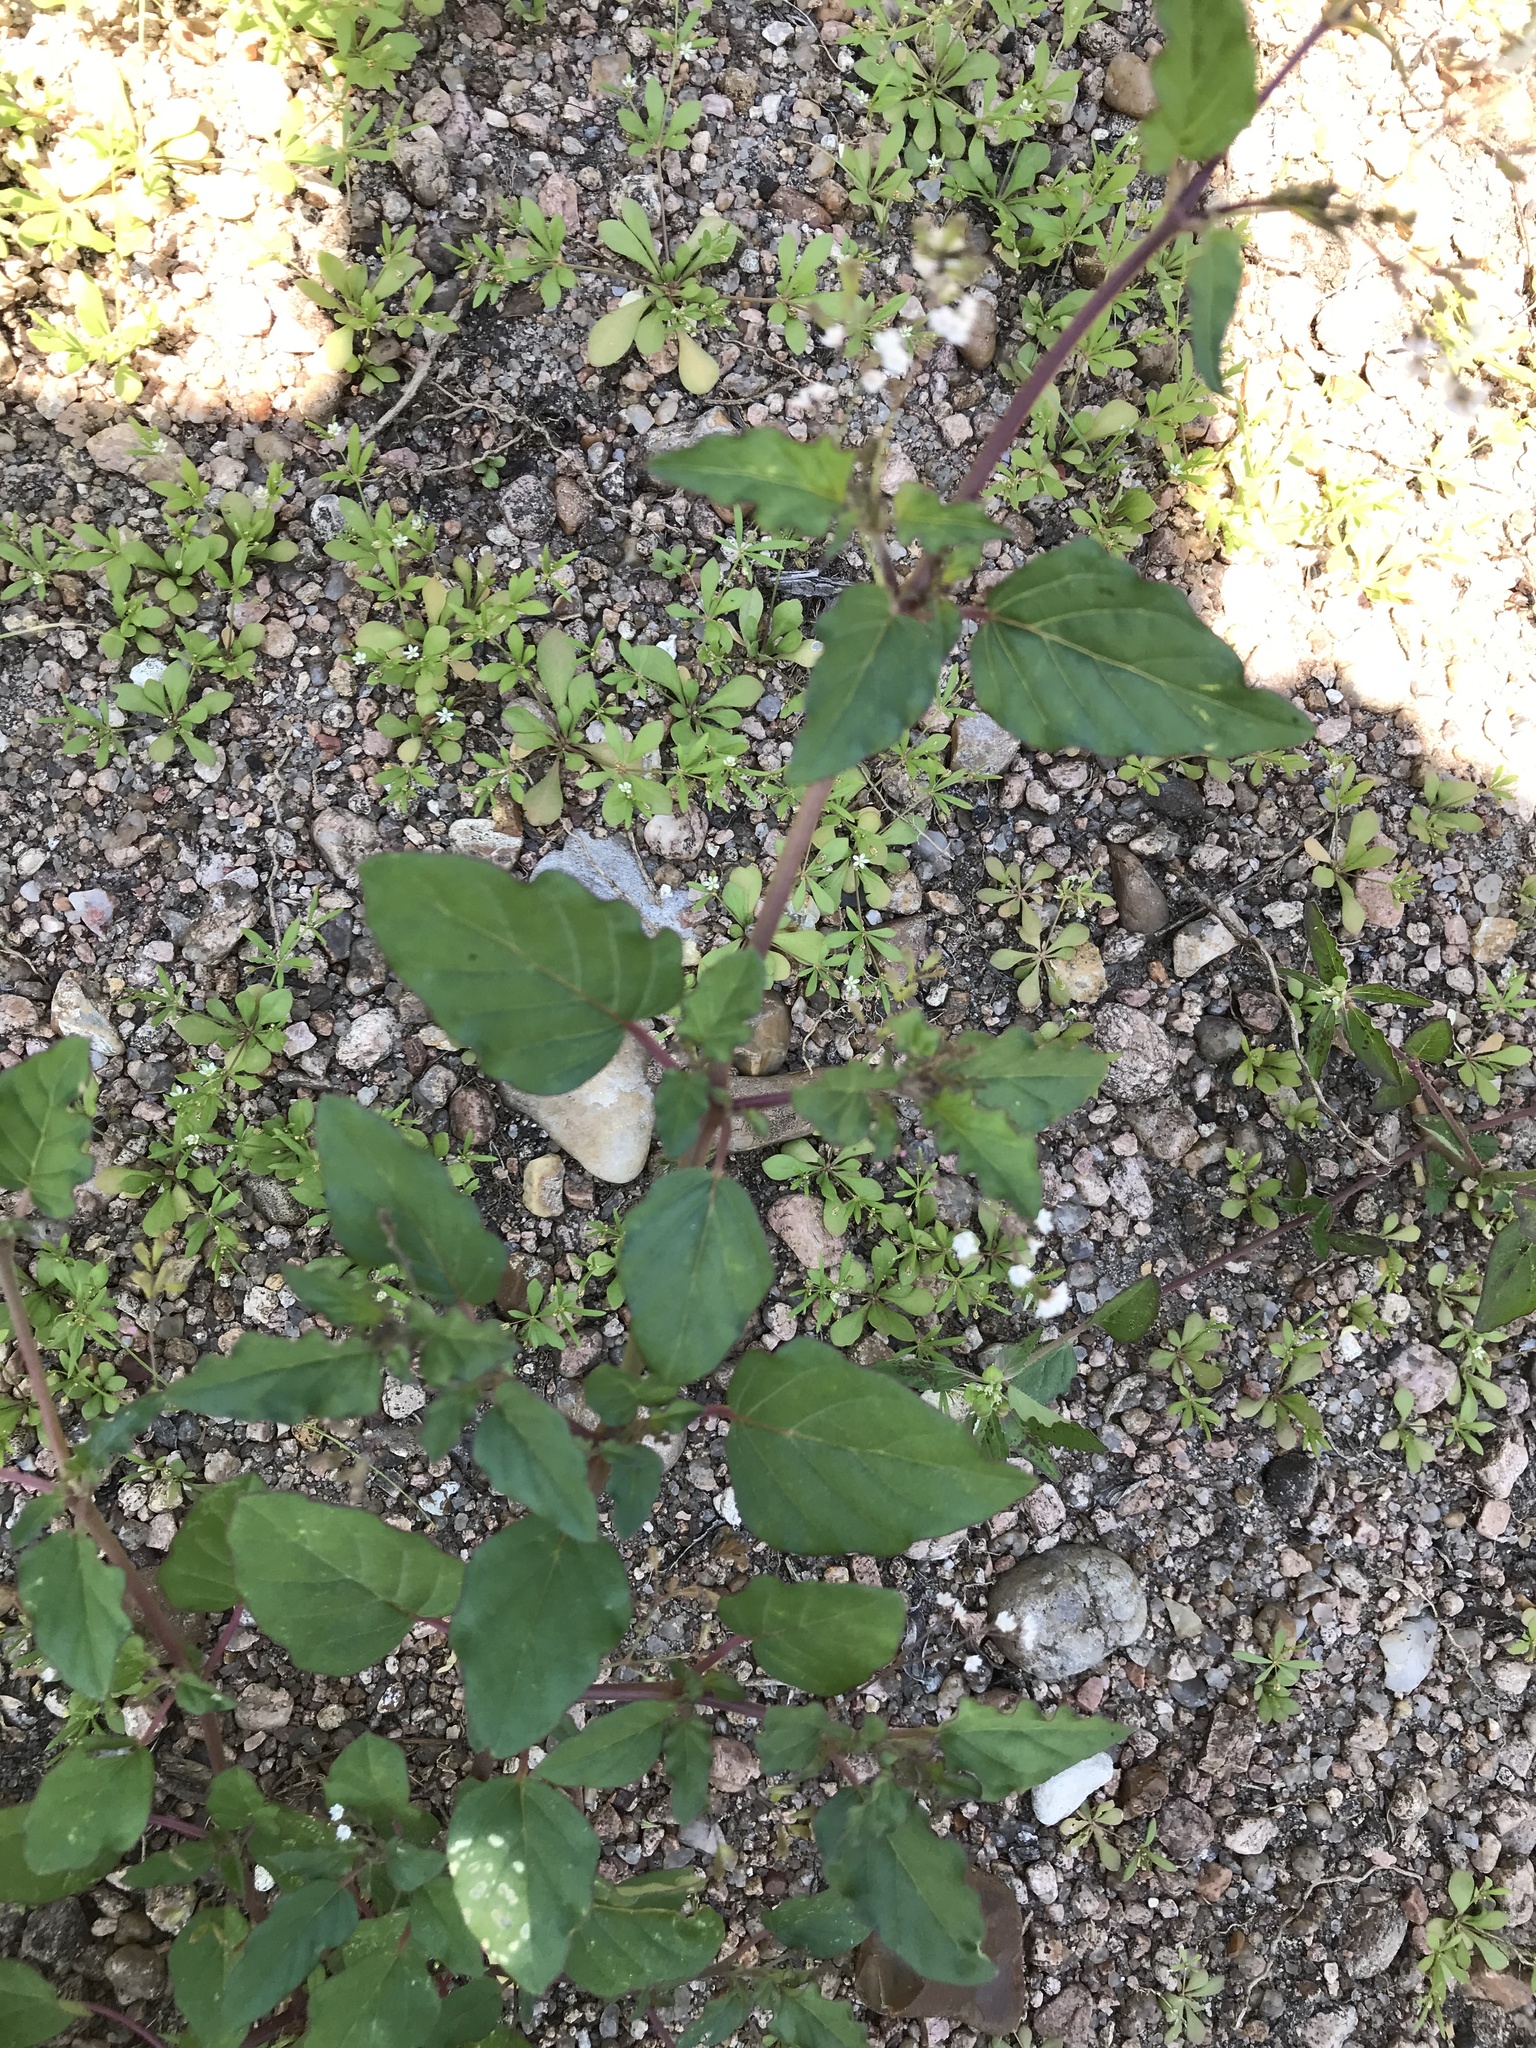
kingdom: Plantae
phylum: Tracheophyta
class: Magnoliopsida
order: Caryophyllales
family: Nyctaginaceae
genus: Boerhavia
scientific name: Boerhavia erecta
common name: Erect spiderling
